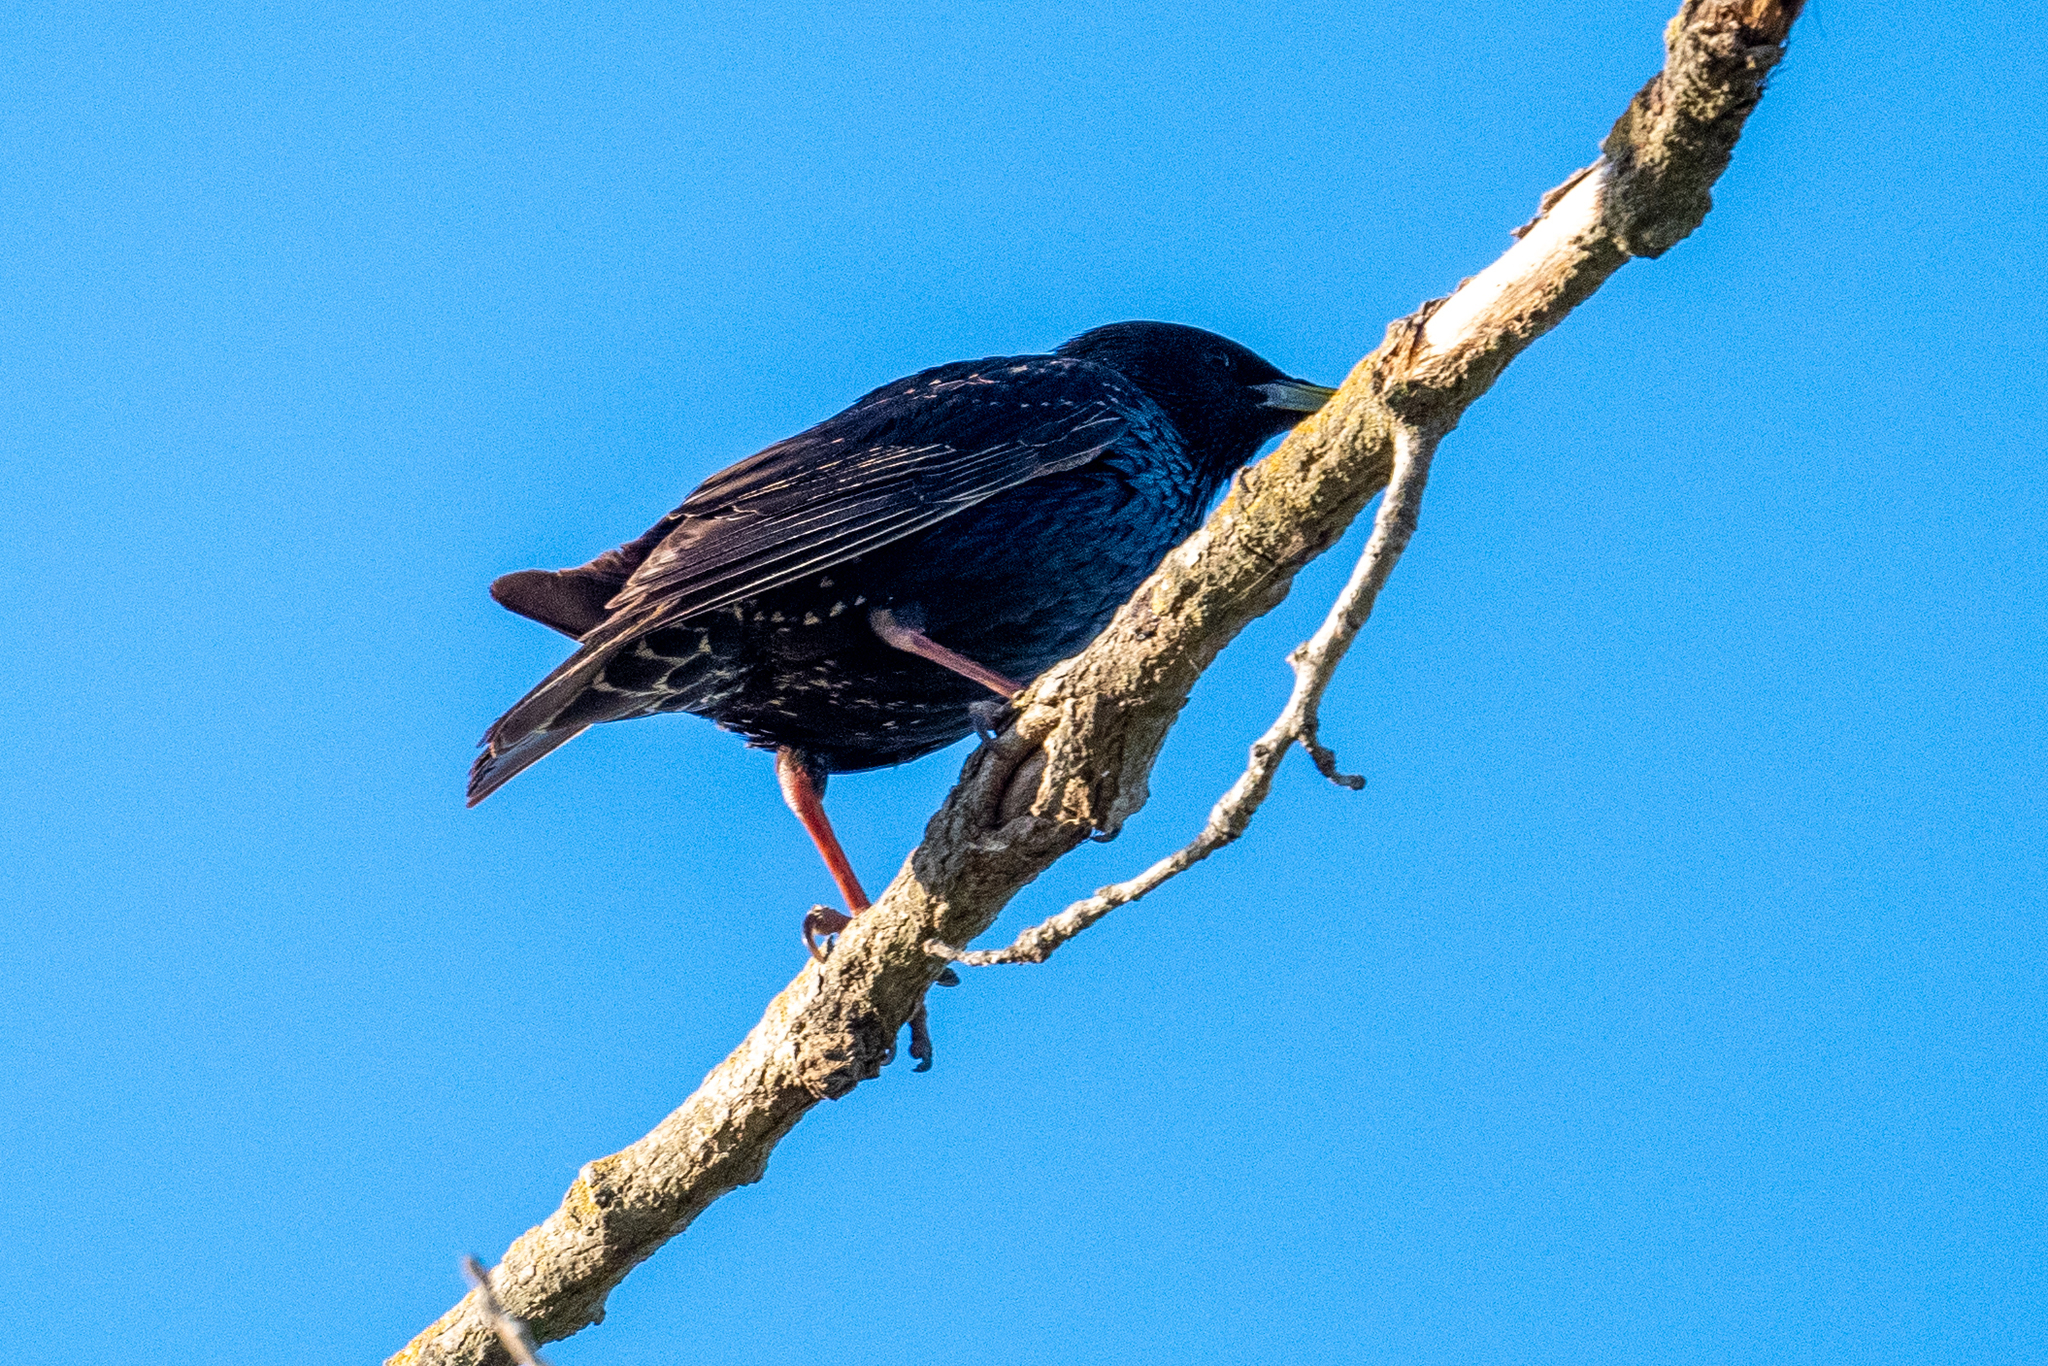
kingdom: Animalia
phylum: Chordata
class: Aves
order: Passeriformes
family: Sturnidae
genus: Sturnus
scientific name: Sturnus vulgaris
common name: Common starling
